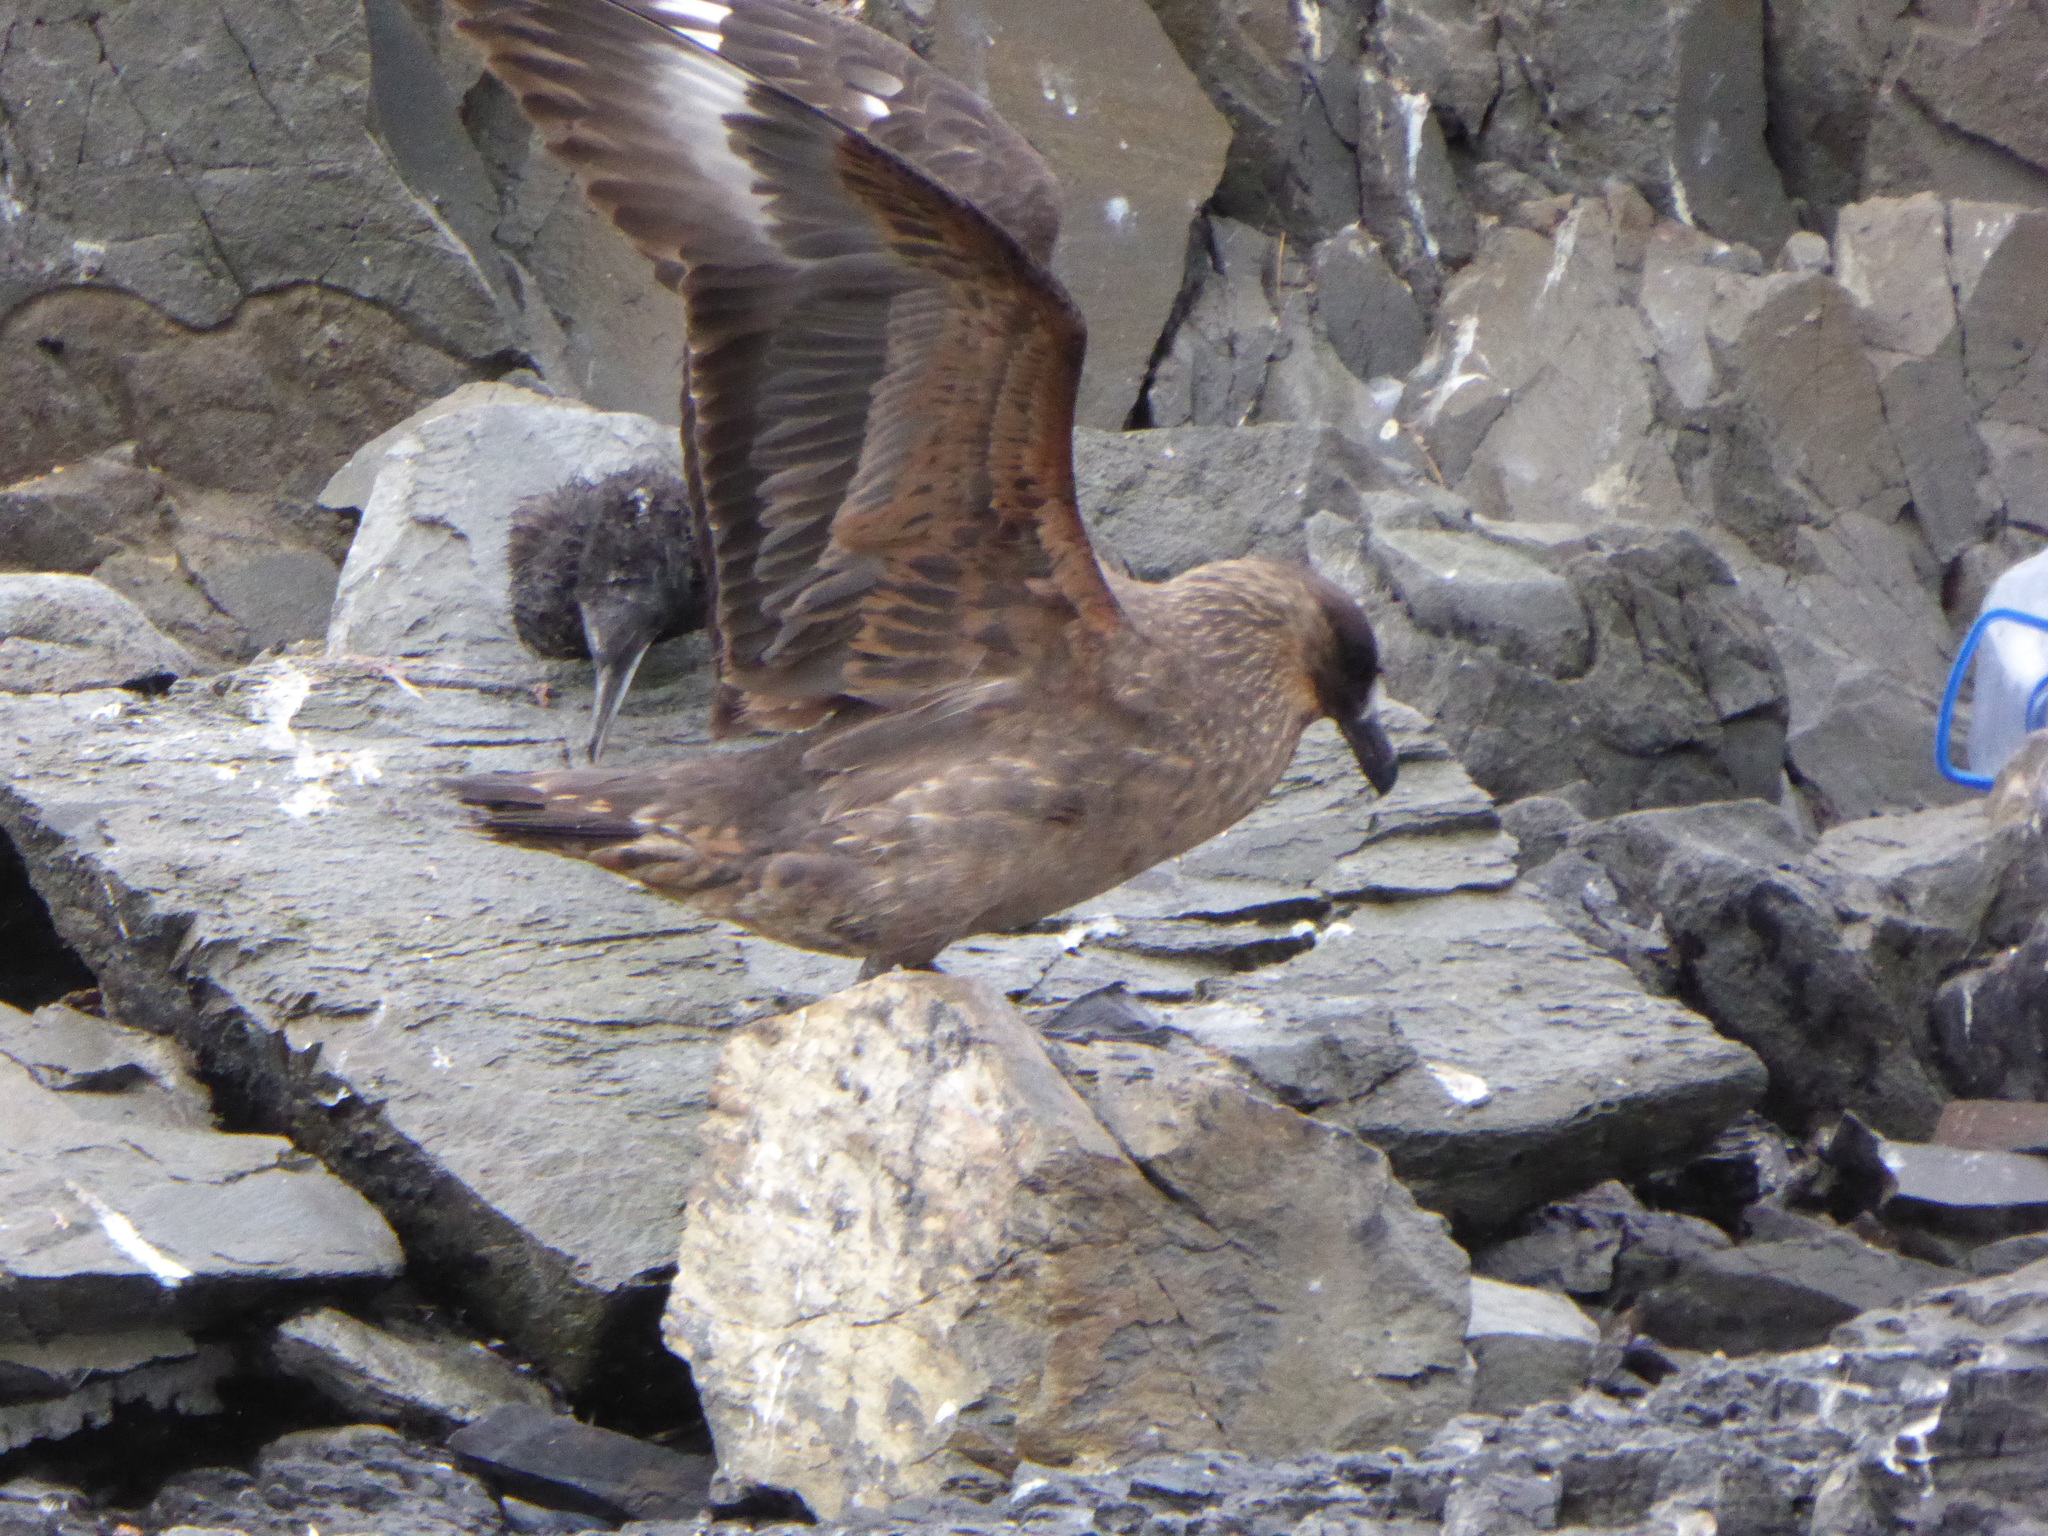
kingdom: Animalia
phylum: Chordata
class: Aves
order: Charadriiformes
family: Stercorariidae
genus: Stercorarius
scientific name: Stercorarius chilensis
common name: Chilean skua
